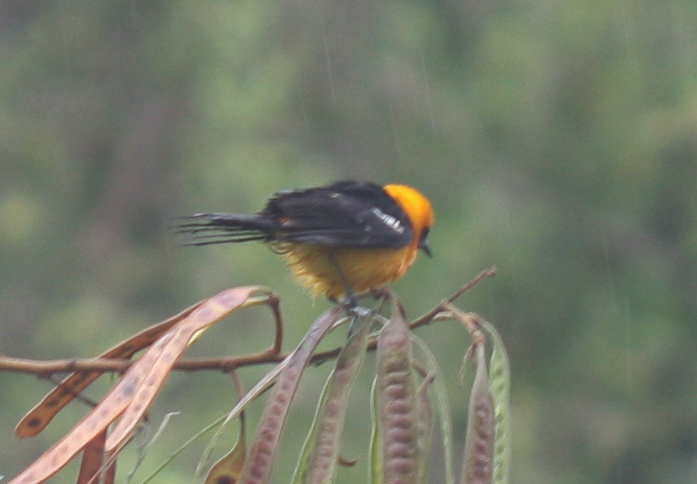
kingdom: Animalia
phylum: Chordata
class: Aves
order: Passeriformes
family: Icteridae
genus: Icterus
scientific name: Icterus cucullatus
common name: Hooded oriole
